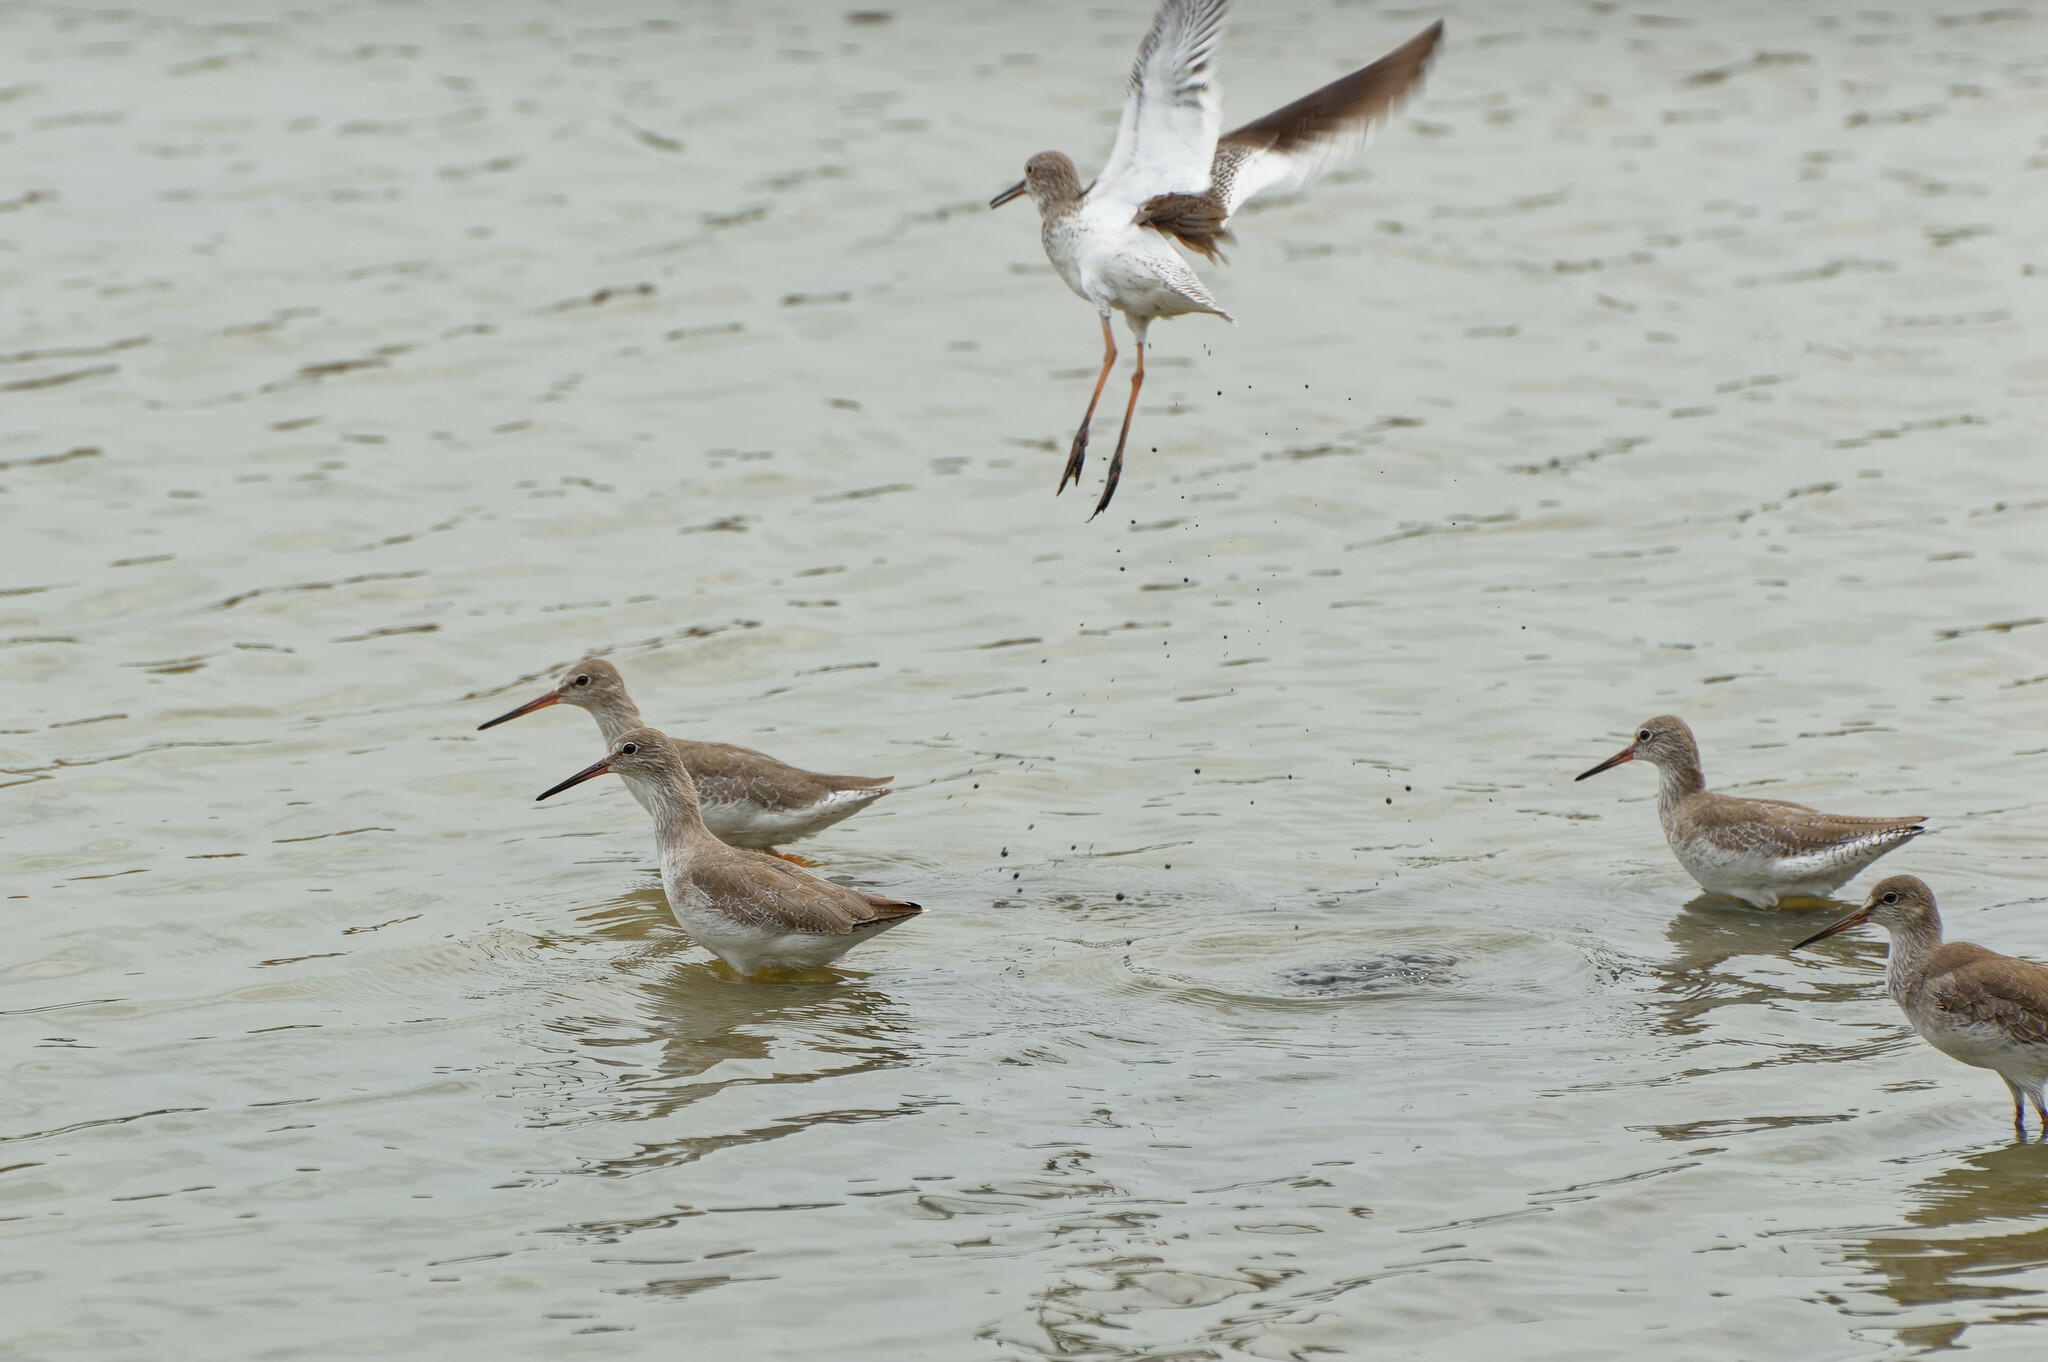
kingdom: Animalia
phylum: Chordata
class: Aves
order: Charadriiformes
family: Scolopacidae
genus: Tringa
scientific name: Tringa totanus
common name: Common redshank
